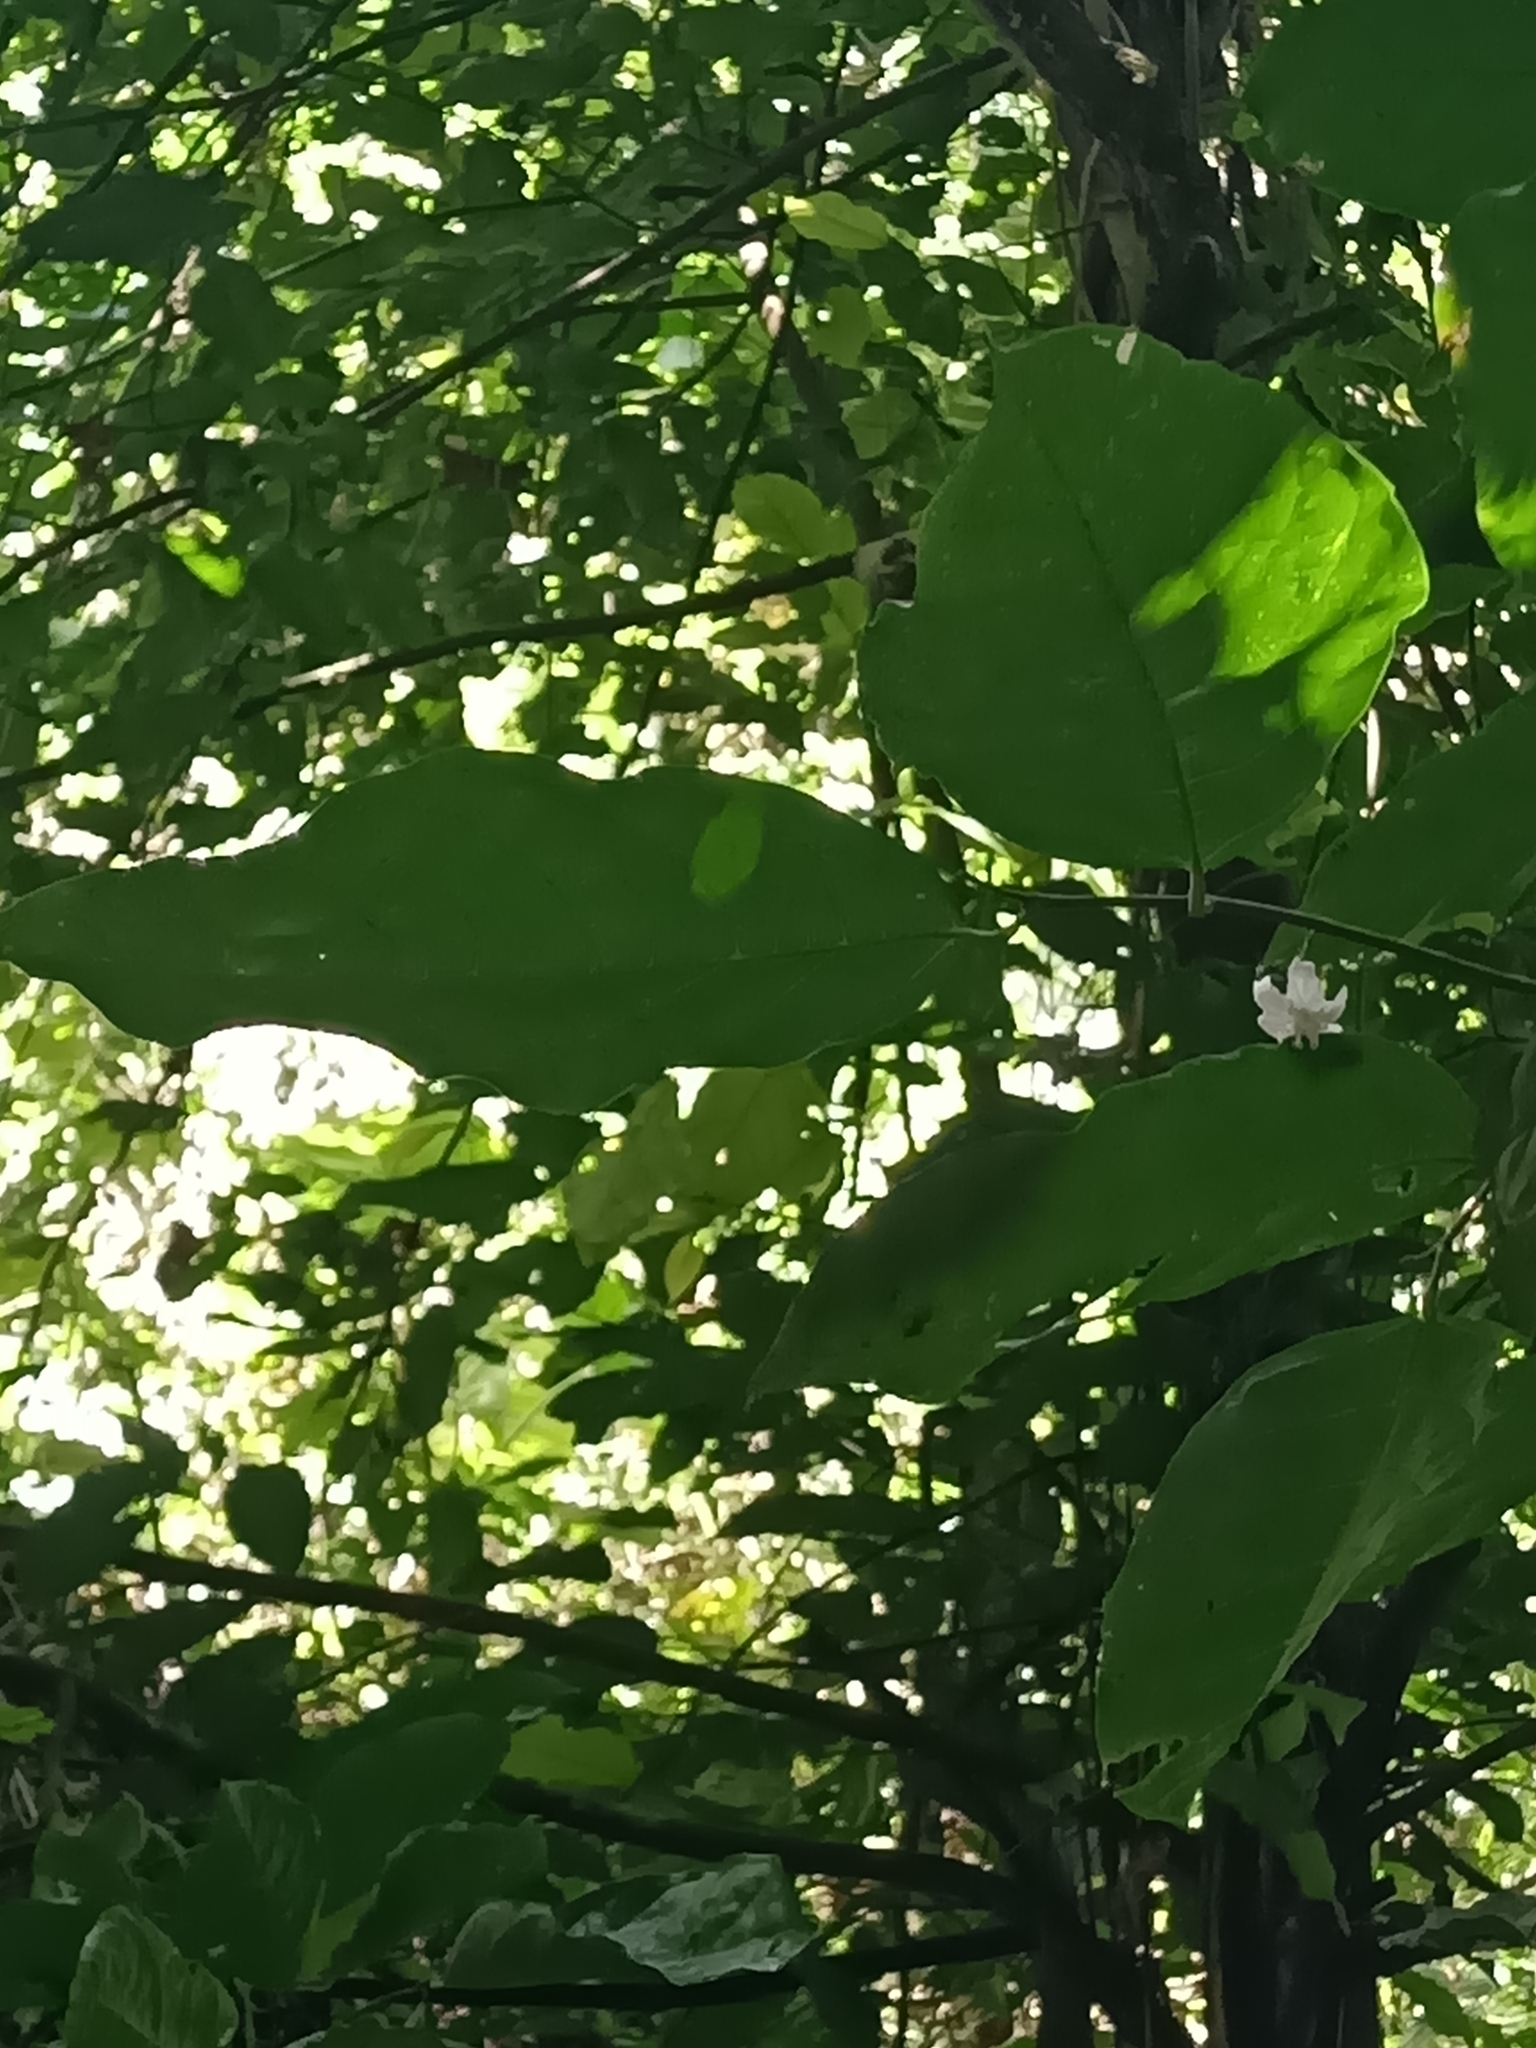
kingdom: Plantae
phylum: Tracheophyta
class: Magnoliopsida
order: Malvales
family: Malvaceae
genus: Quararibea
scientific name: Quararibea duckei
